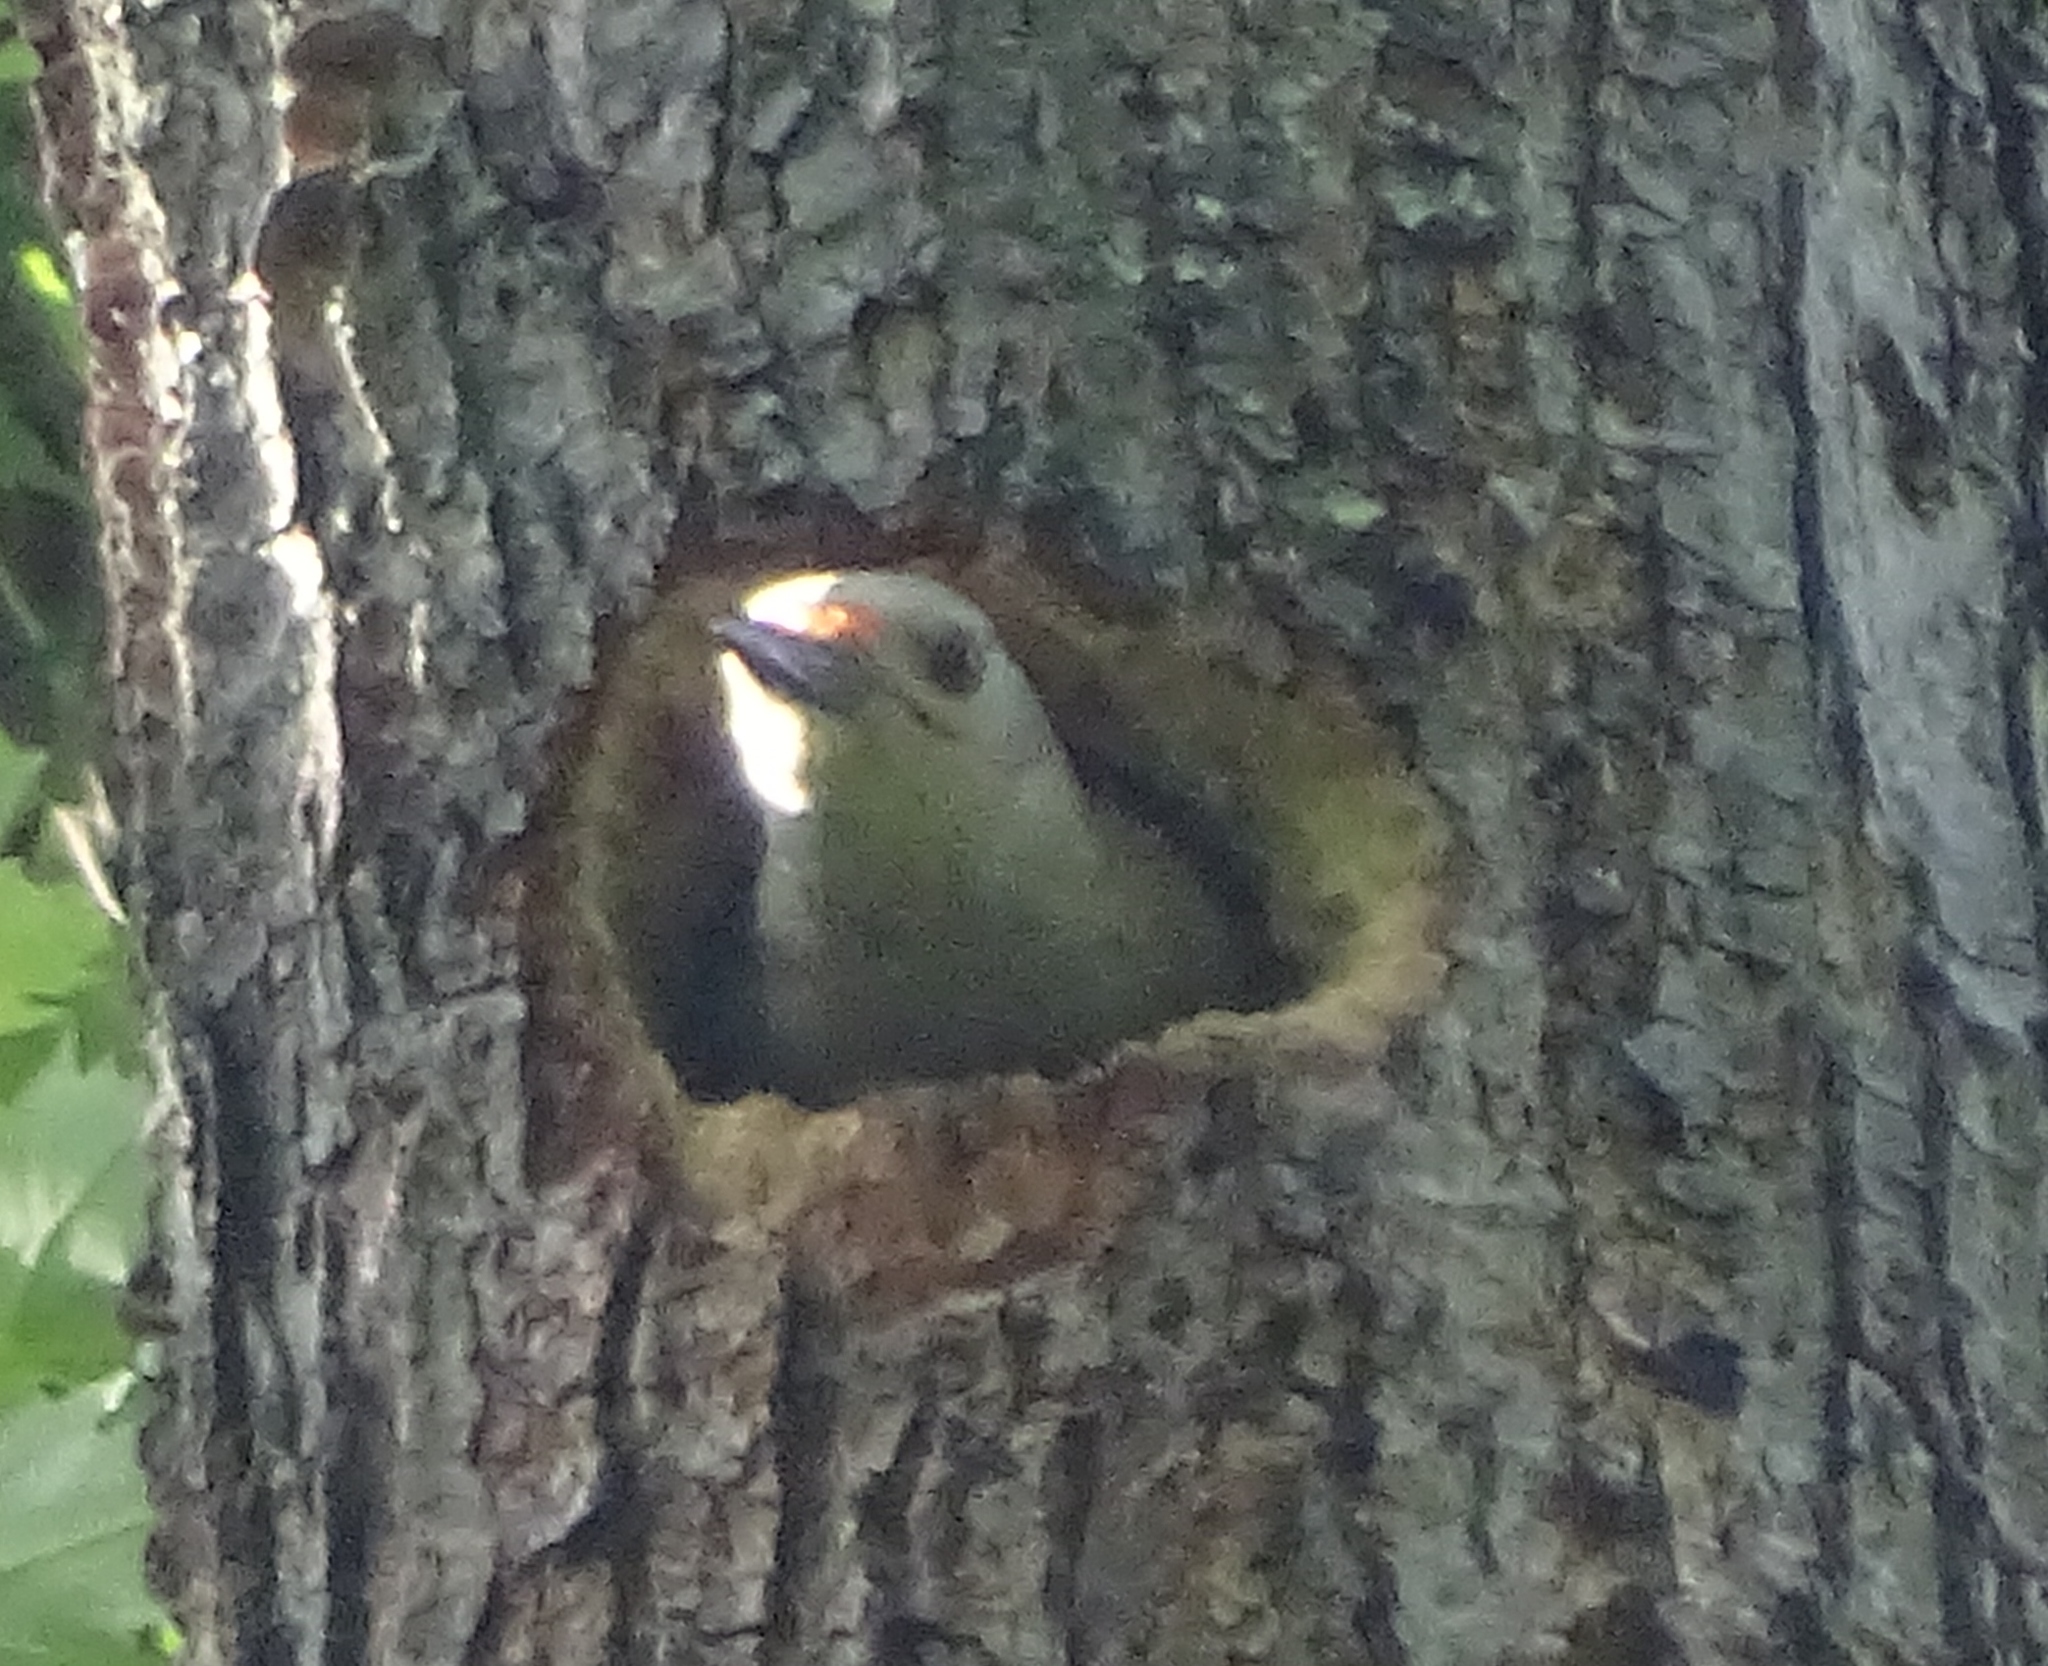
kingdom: Animalia
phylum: Chordata
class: Aves
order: Piciformes
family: Picidae
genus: Melanerpes
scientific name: Melanerpes carolinus
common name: Red-bellied woodpecker
